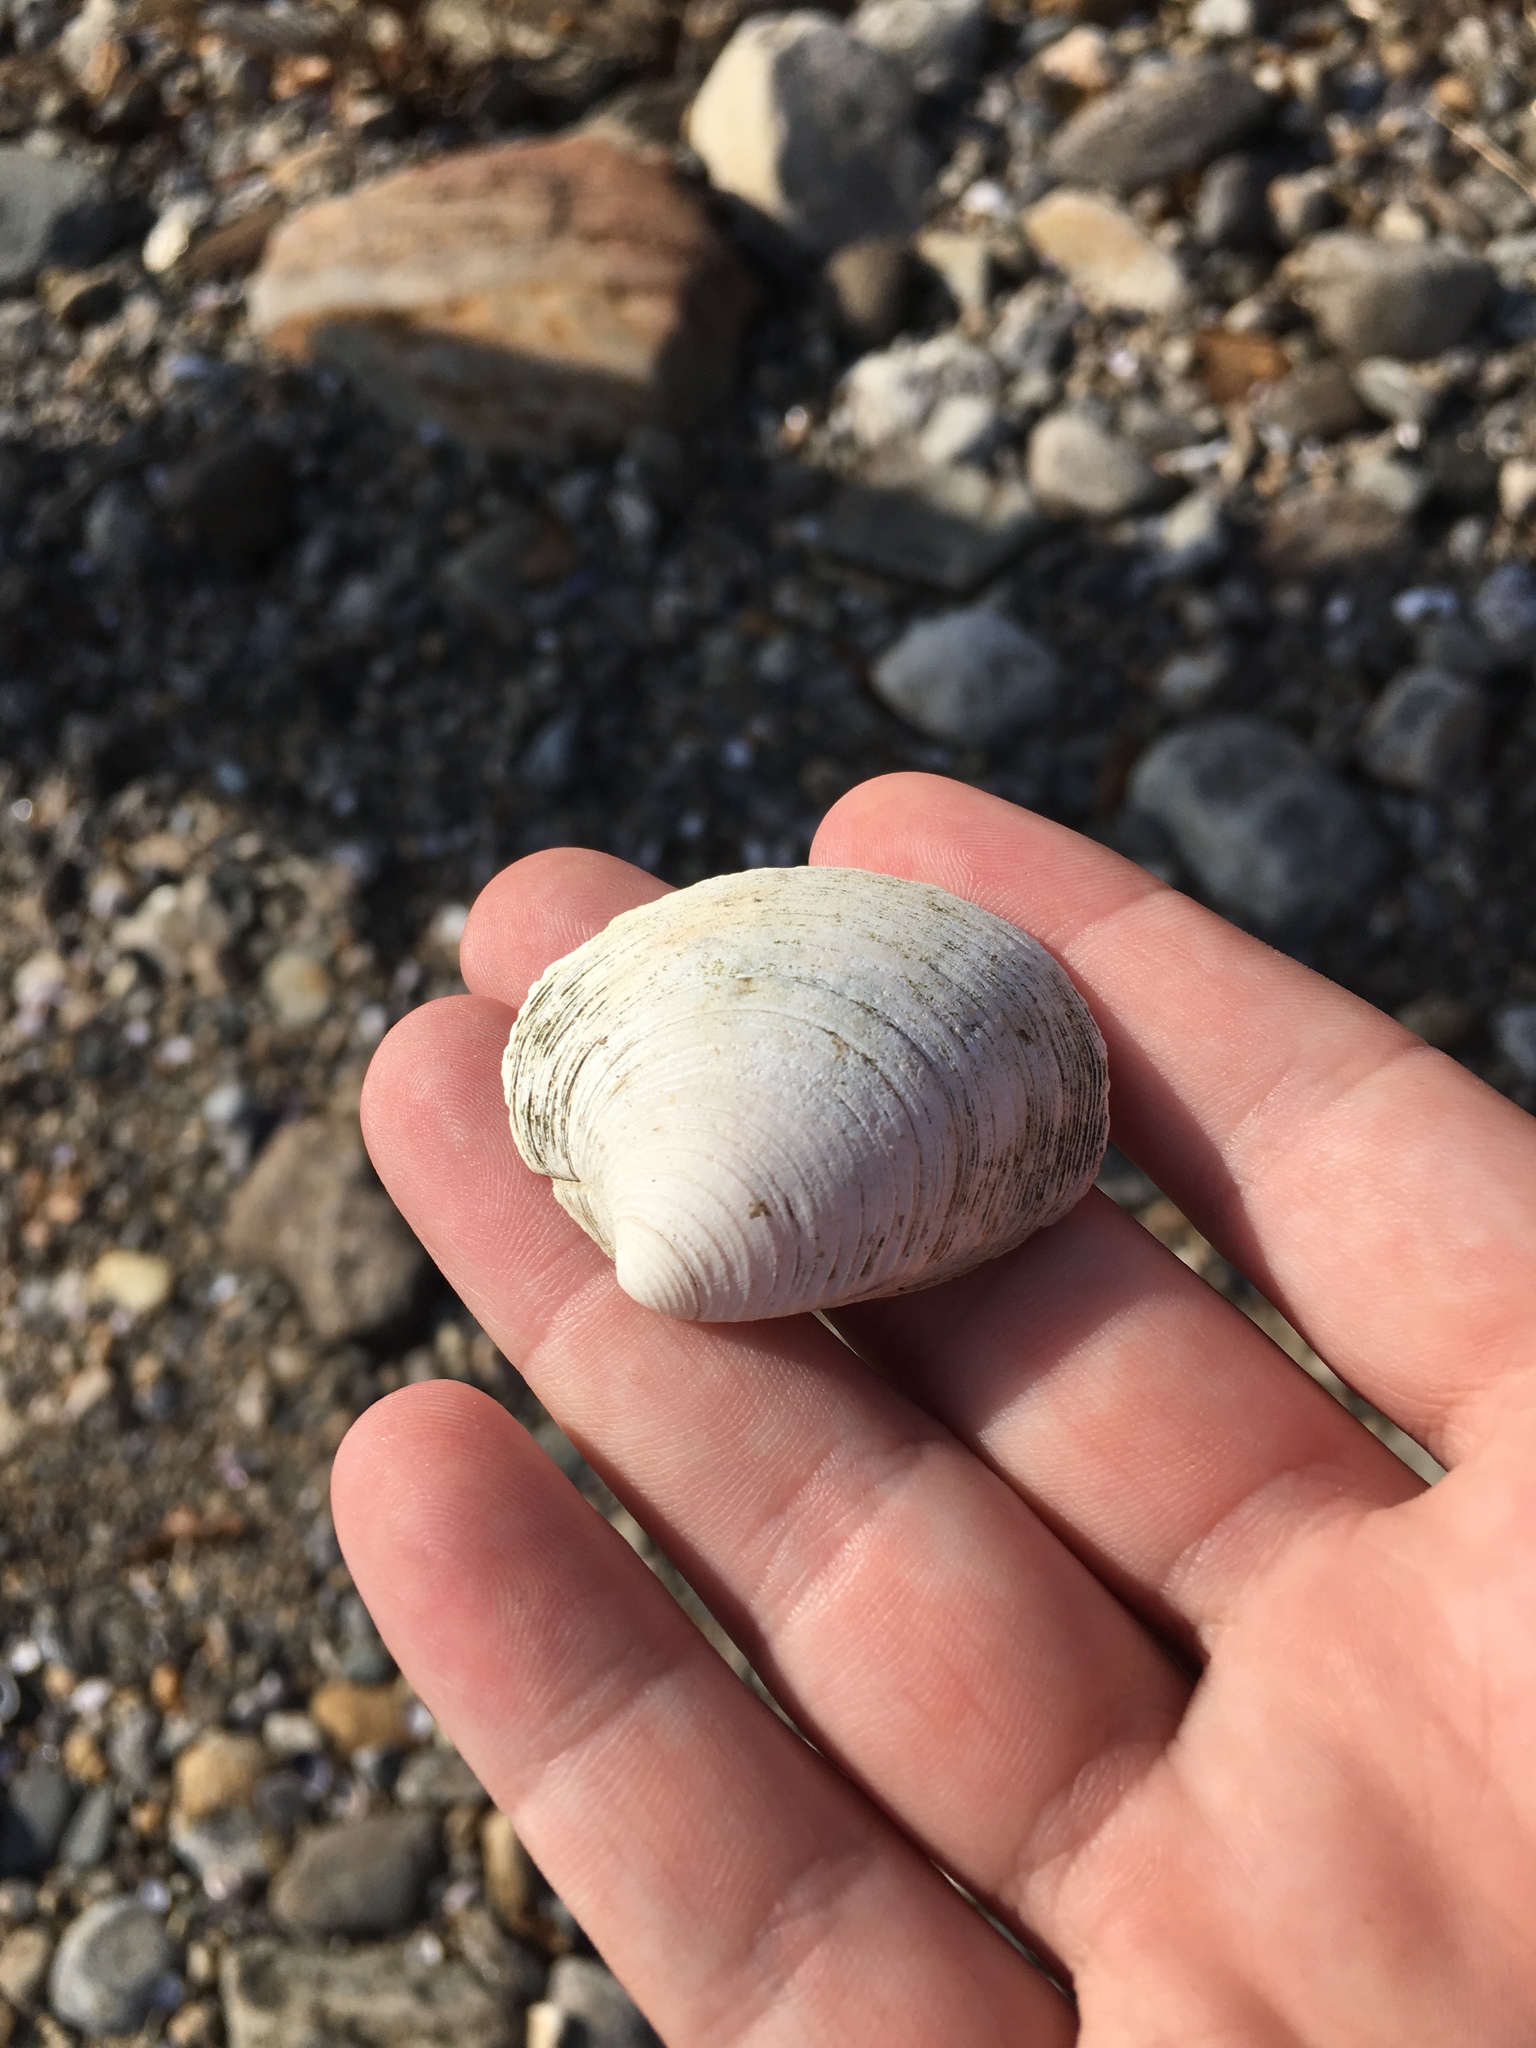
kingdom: Animalia
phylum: Mollusca
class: Bivalvia
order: Venerida
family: Veneridae
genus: Mercenaria
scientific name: Mercenaria mercenaria
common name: American hard-shelled clam
